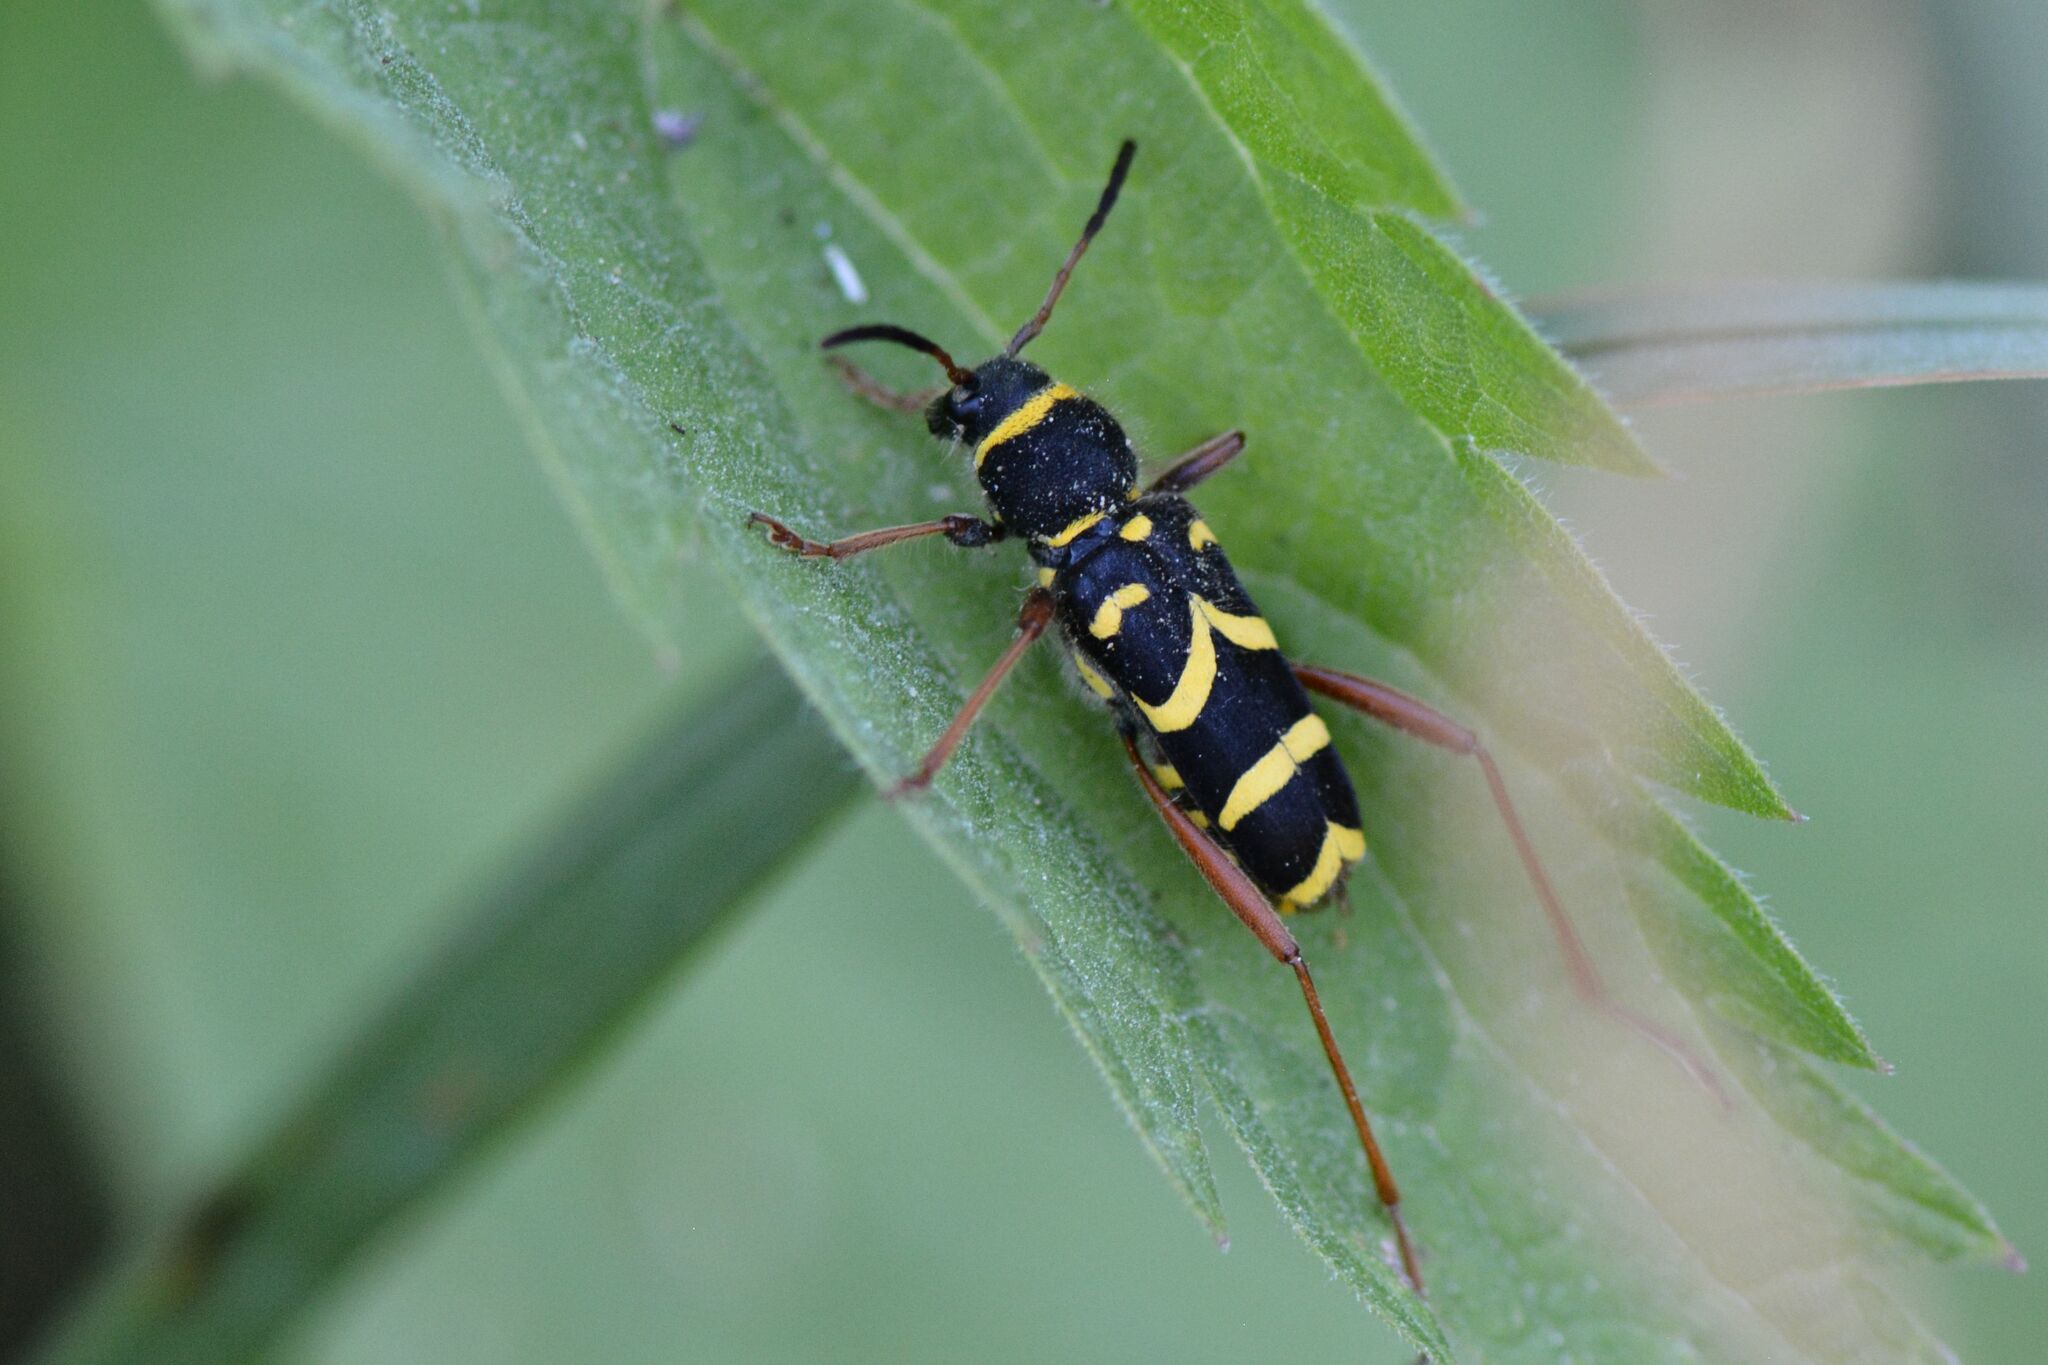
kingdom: Animalia
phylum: Arthropoda
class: Insecta
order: Coleoptera
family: Cerambycidae
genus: Clytus
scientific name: Clytus arietis
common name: Wasp beetle
